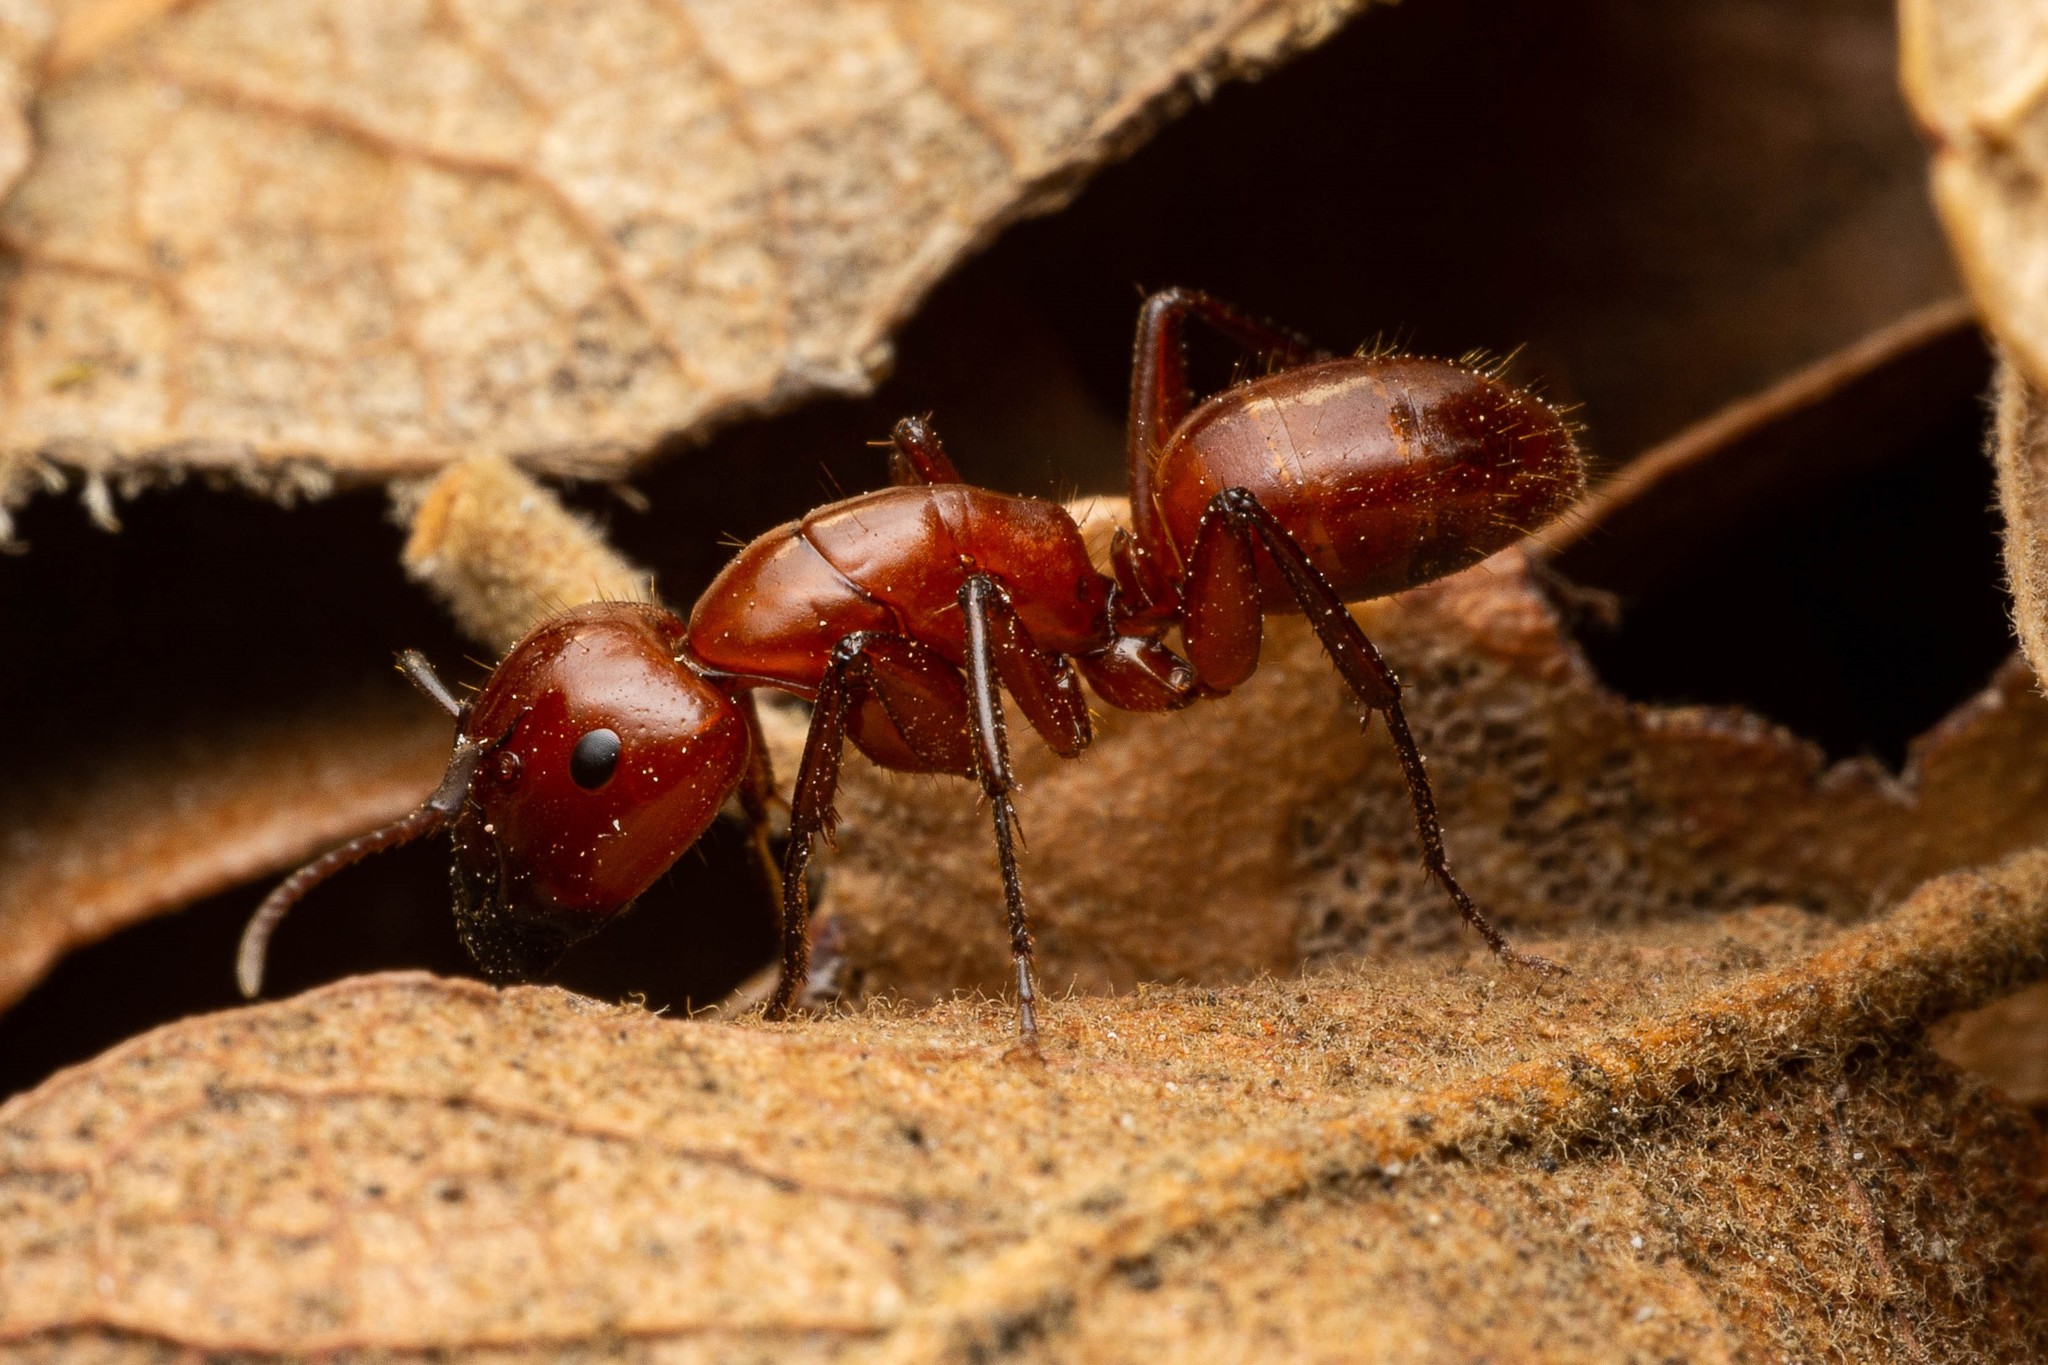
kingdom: Animalia
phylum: Arthropoda
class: Insecta
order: Hymenoptera
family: Formicidae
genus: Camponotus
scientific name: Camponotus schaefferi
